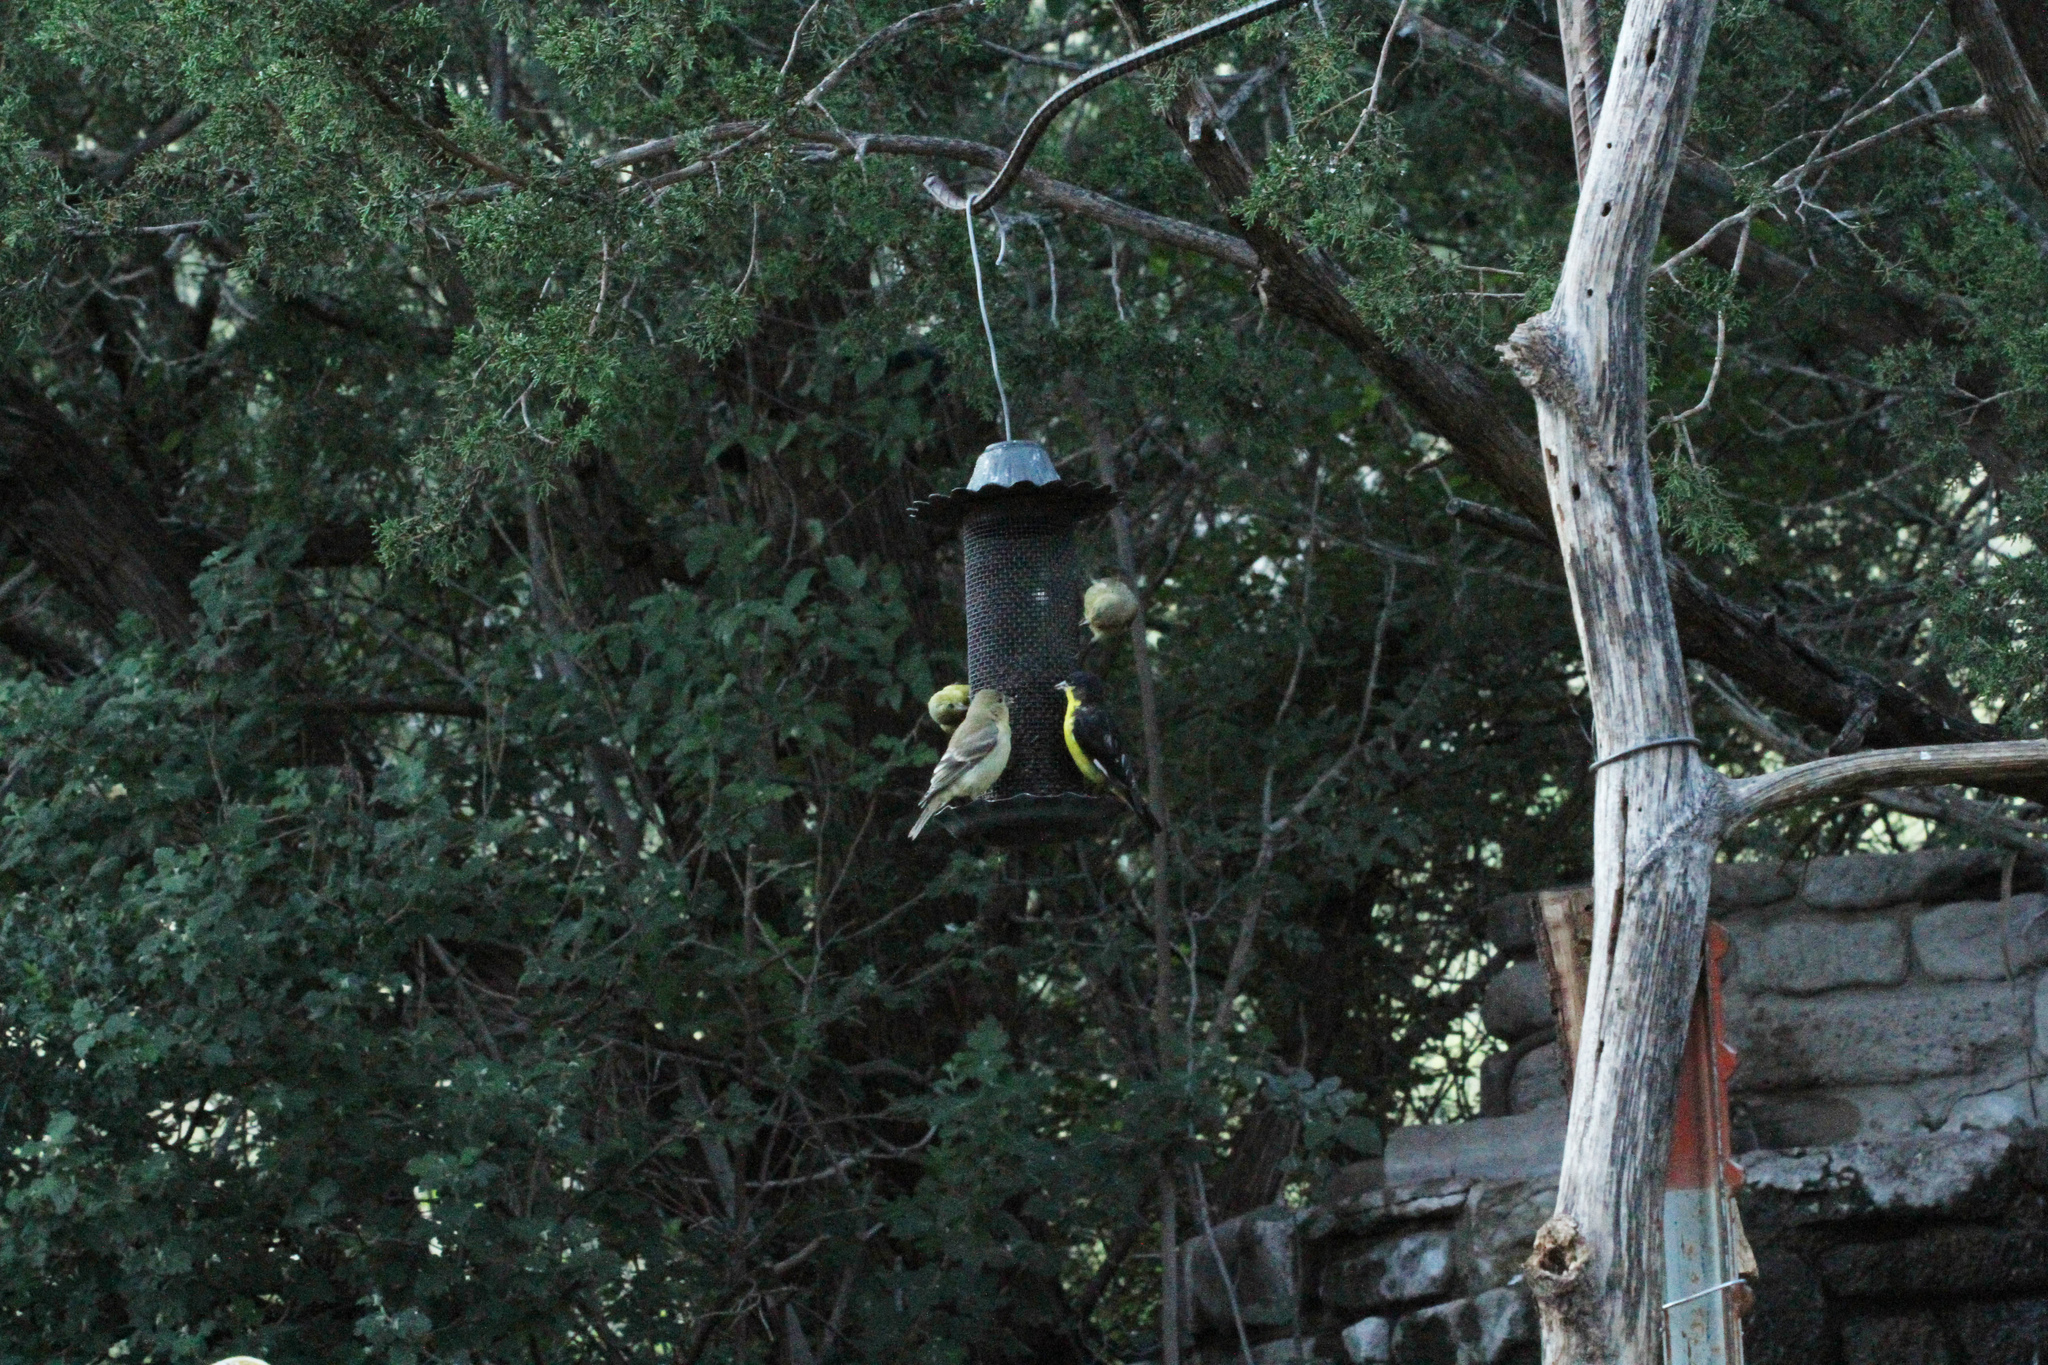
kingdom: Animalia
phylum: Chordata
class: Aves
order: Passeriformes
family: Fringillidae
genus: Spinus
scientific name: Spinus psaltria
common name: Lesser goldfinch
